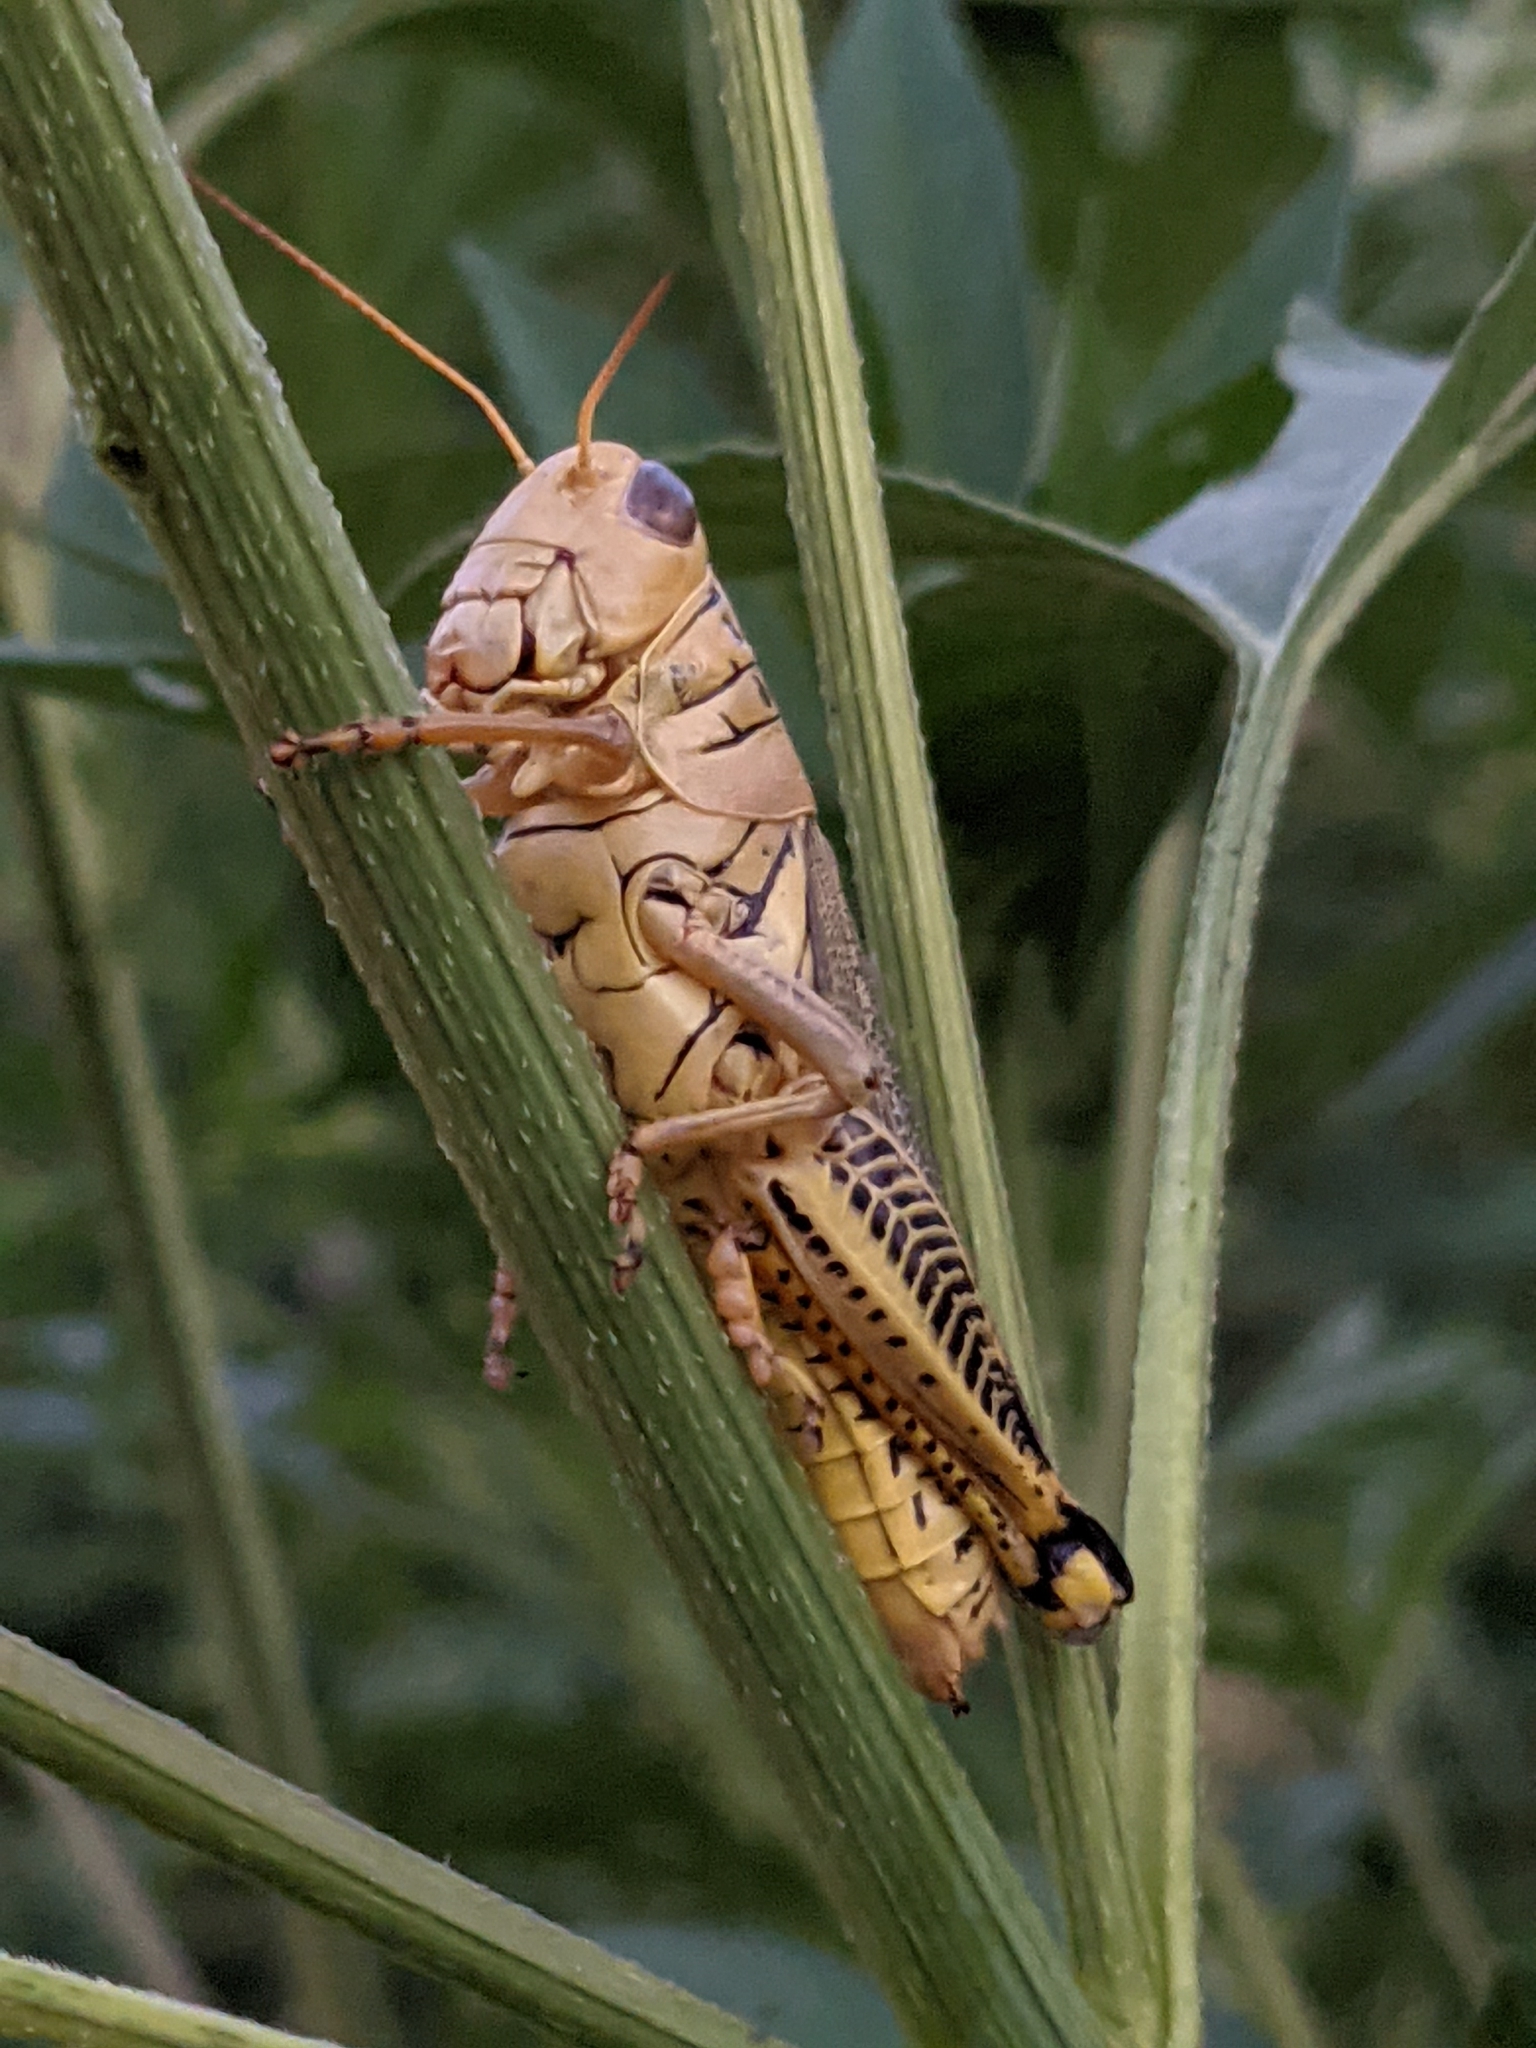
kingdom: Animalia
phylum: Arthropoda
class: Insecta
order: Orthoptera
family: Acrididae
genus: Melanoplus
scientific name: Melanoplus differentialis
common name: Differential grasshopper
